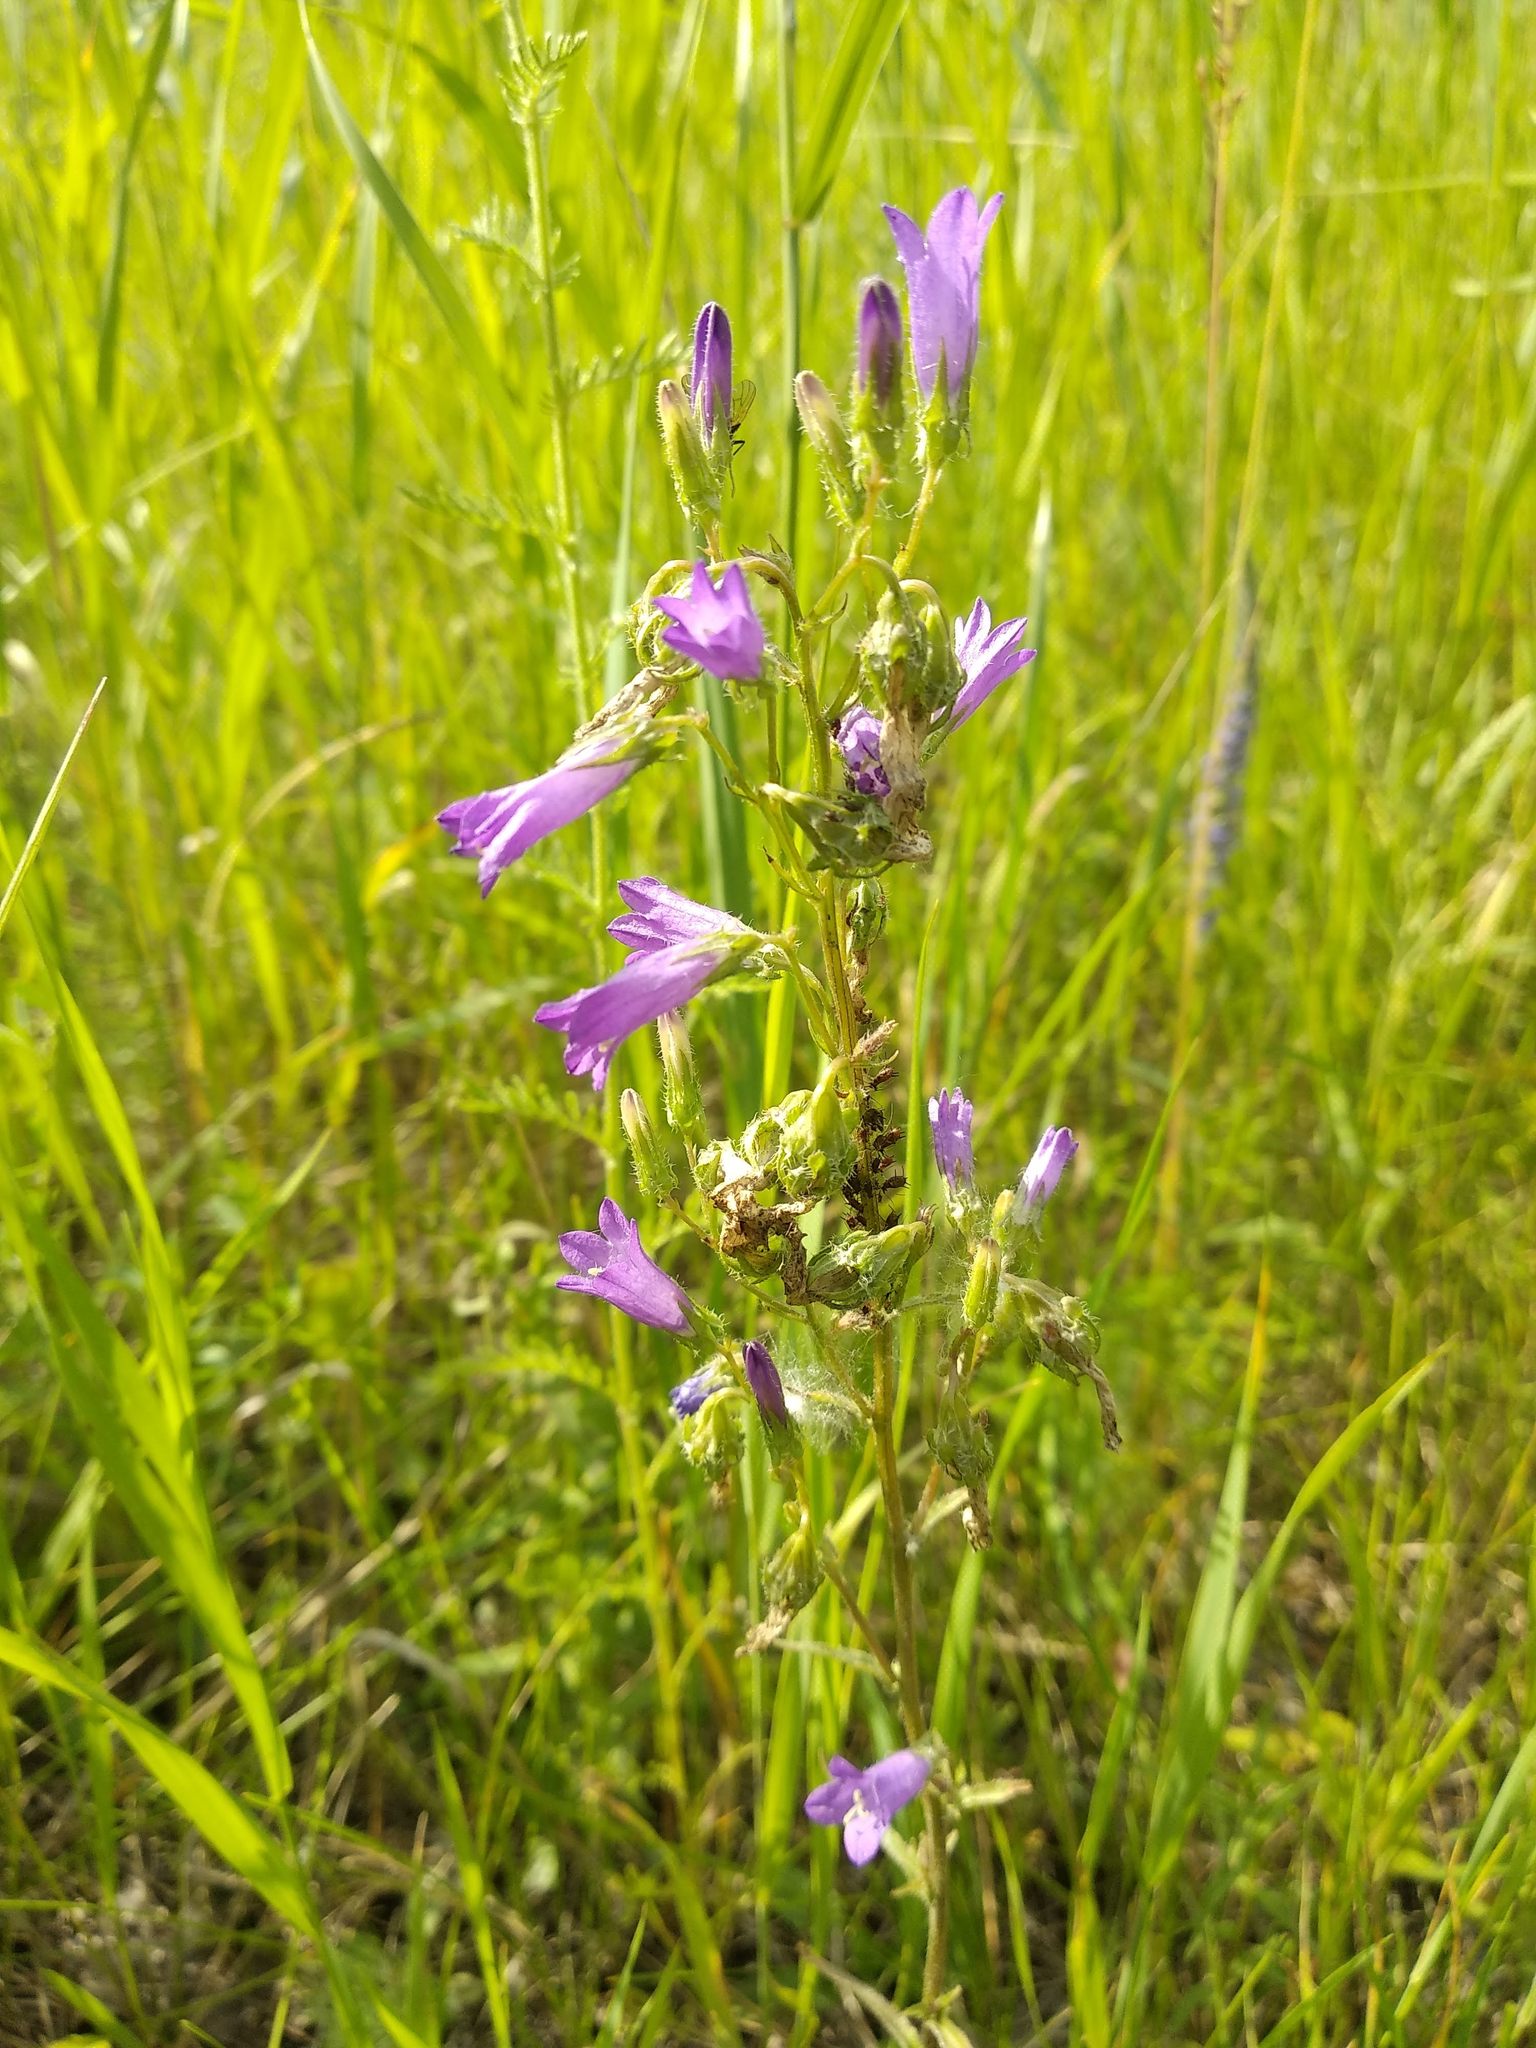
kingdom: Plantae
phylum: Tracheophyta
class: Magnoliopsida
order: Asterales
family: Campanulaceae
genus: Campanula
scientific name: Campanula sibirica
